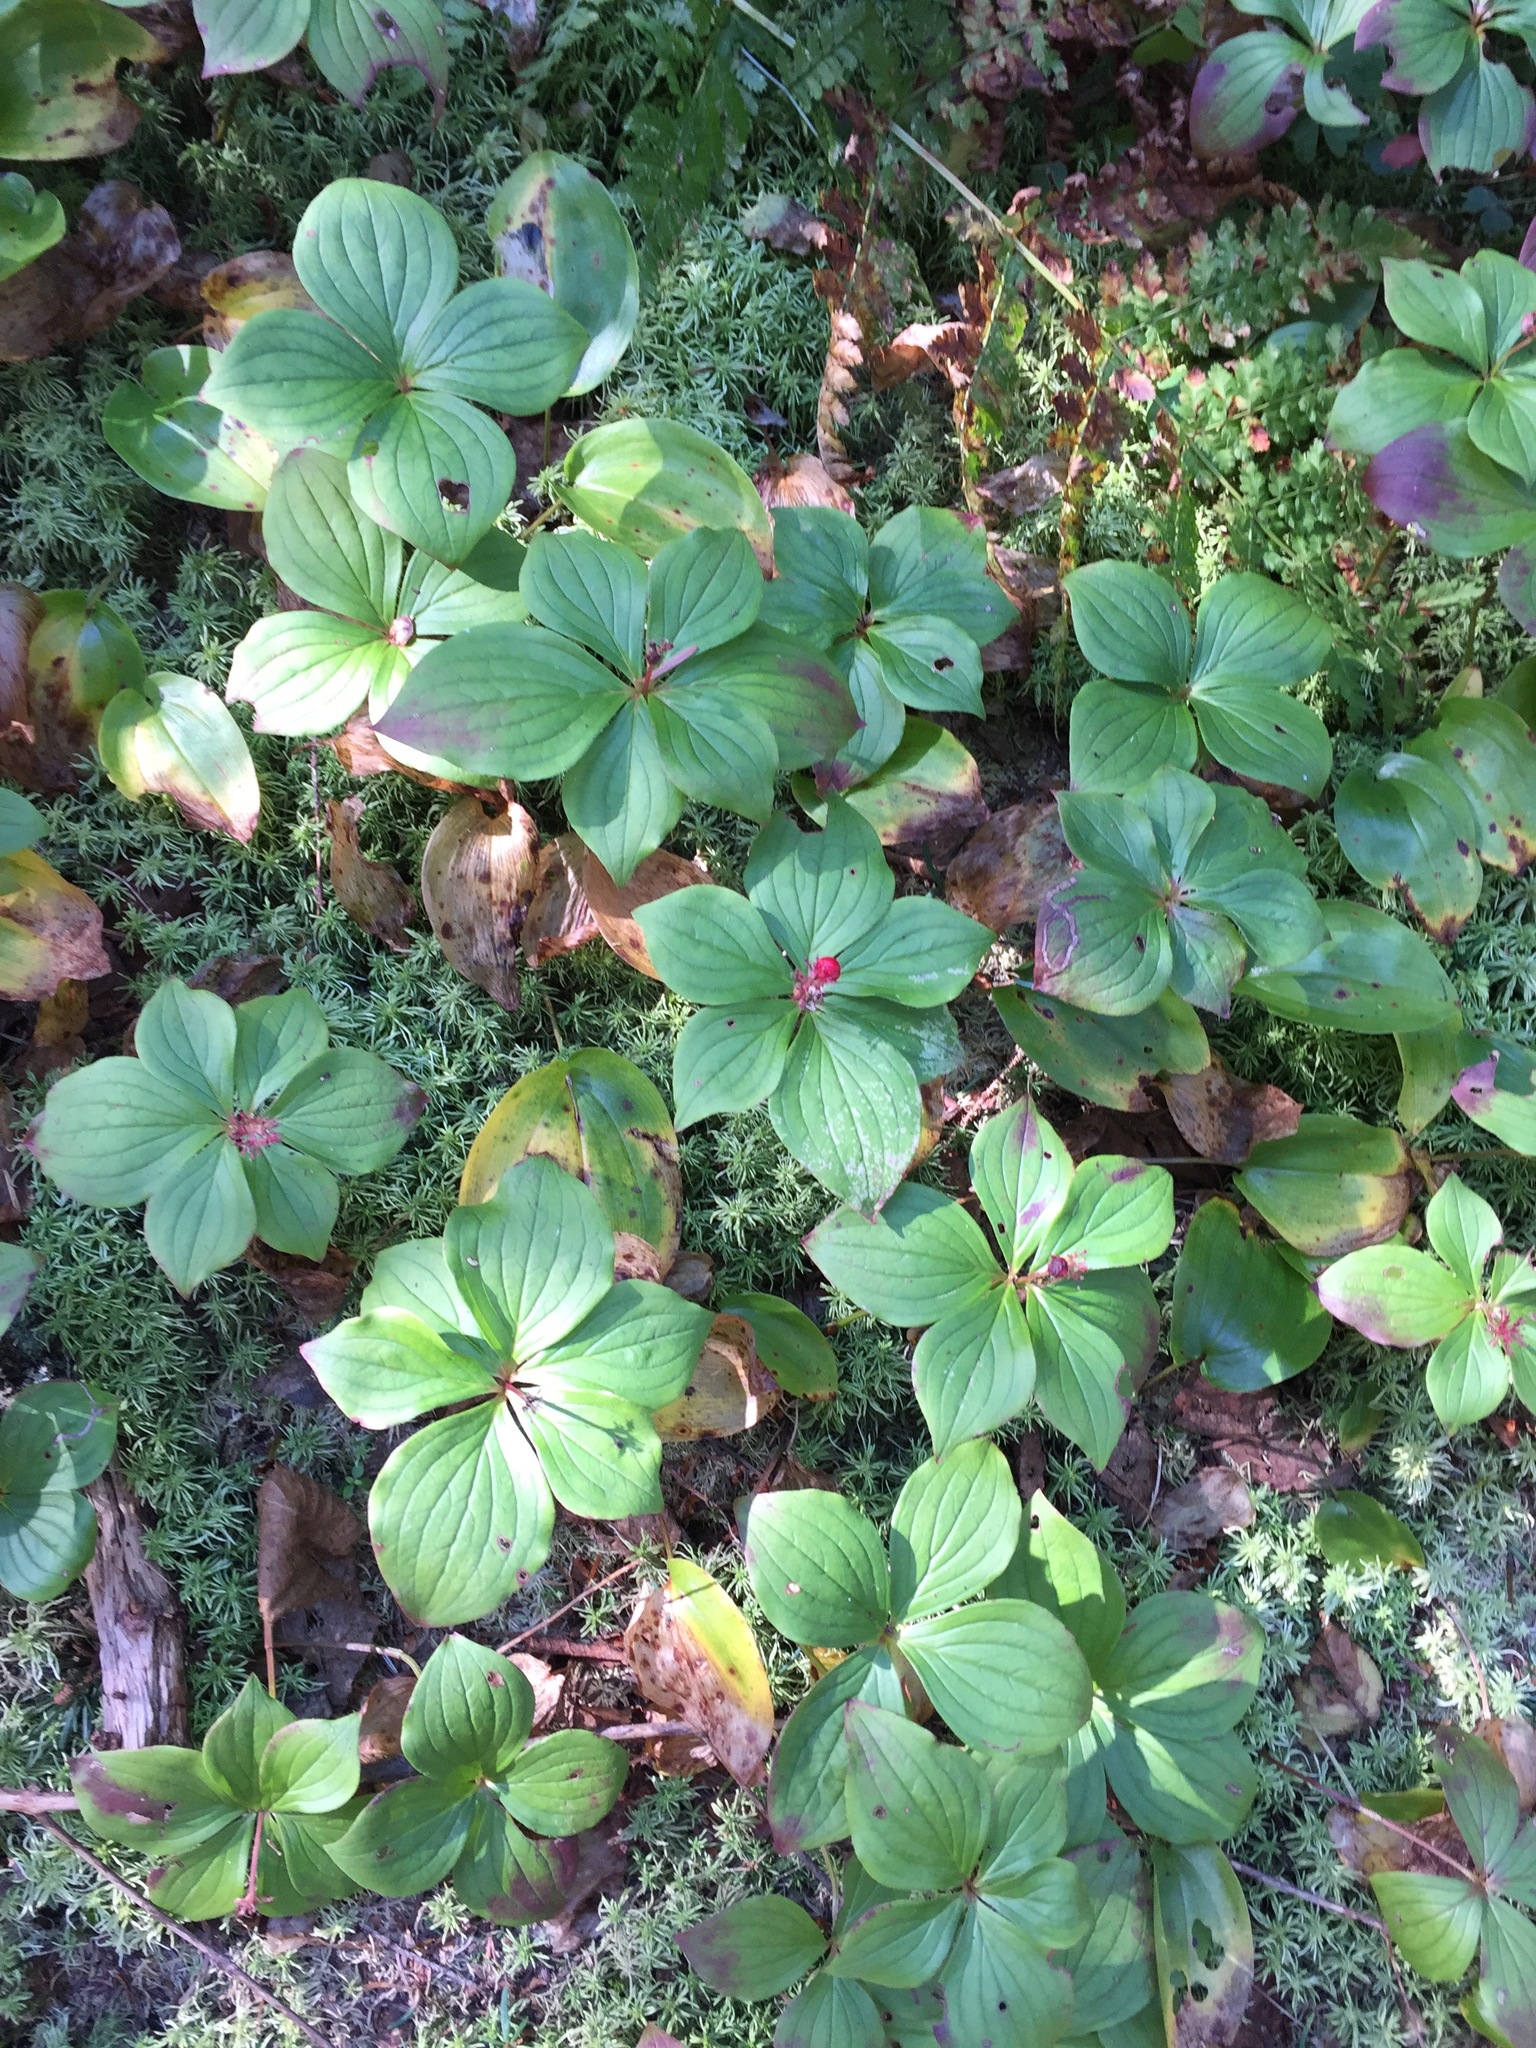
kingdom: Plantae
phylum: Tracheophyta
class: Magnoliopsida
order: Cornales
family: Cornaceae
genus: Cornus
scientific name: Cornus canadensis
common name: Creeping dogwood
